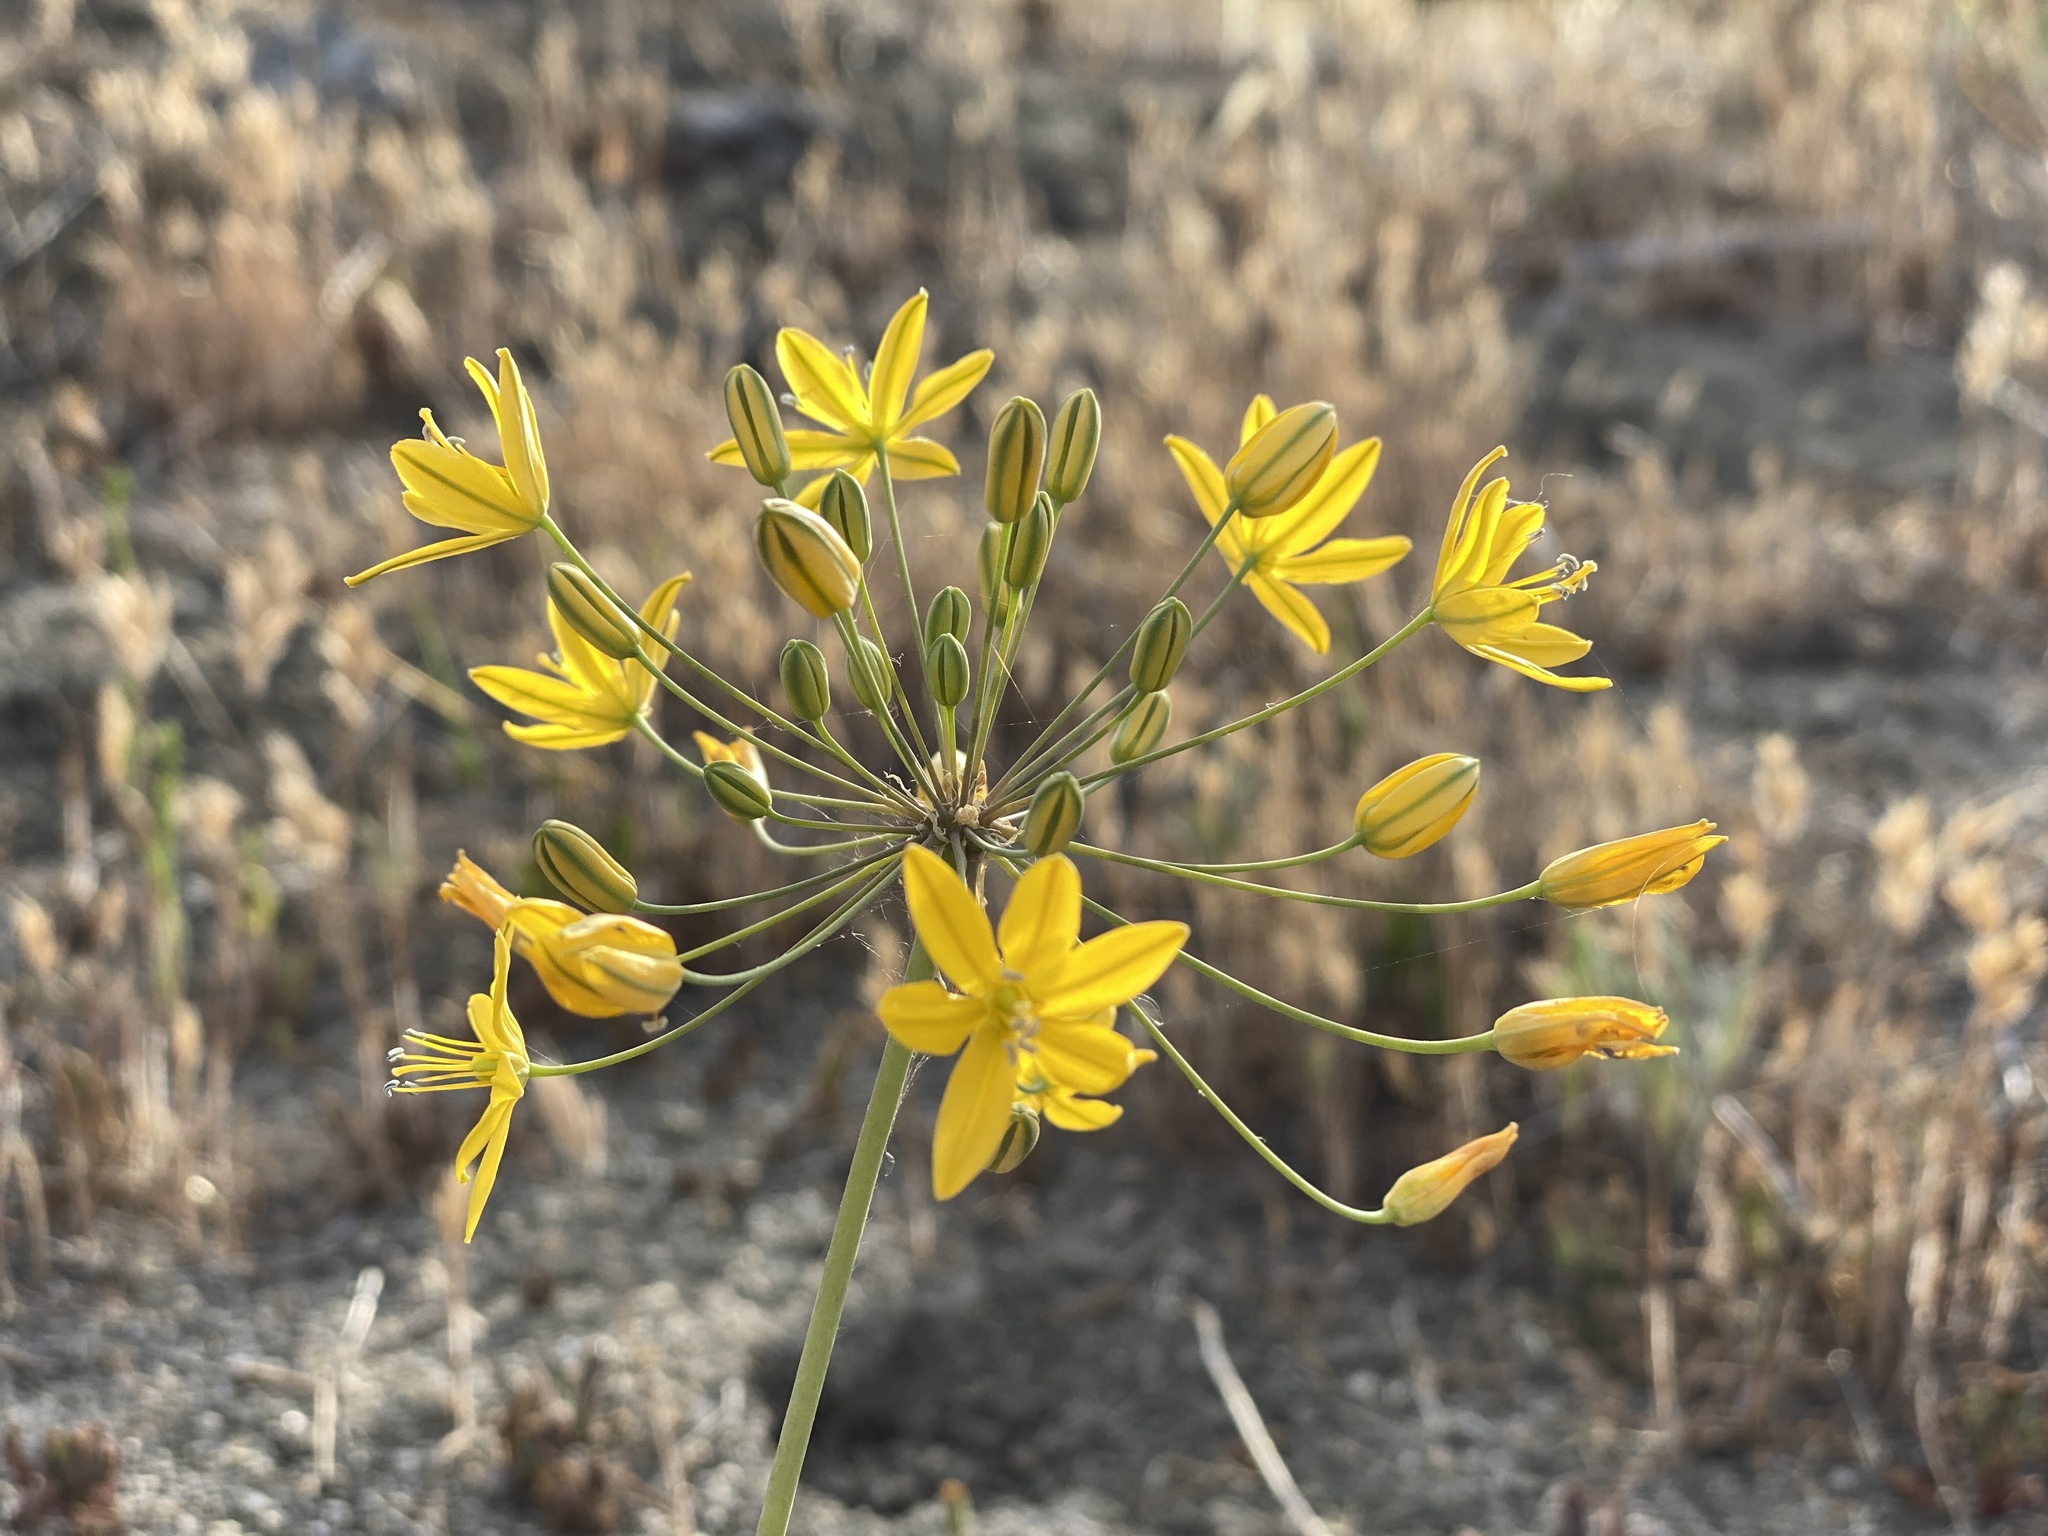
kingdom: Plantae
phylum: Tracheophyta
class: Liliopsida
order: Asparagales
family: Asparagaceae
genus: Bloomeria
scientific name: Bloomeria crocea
